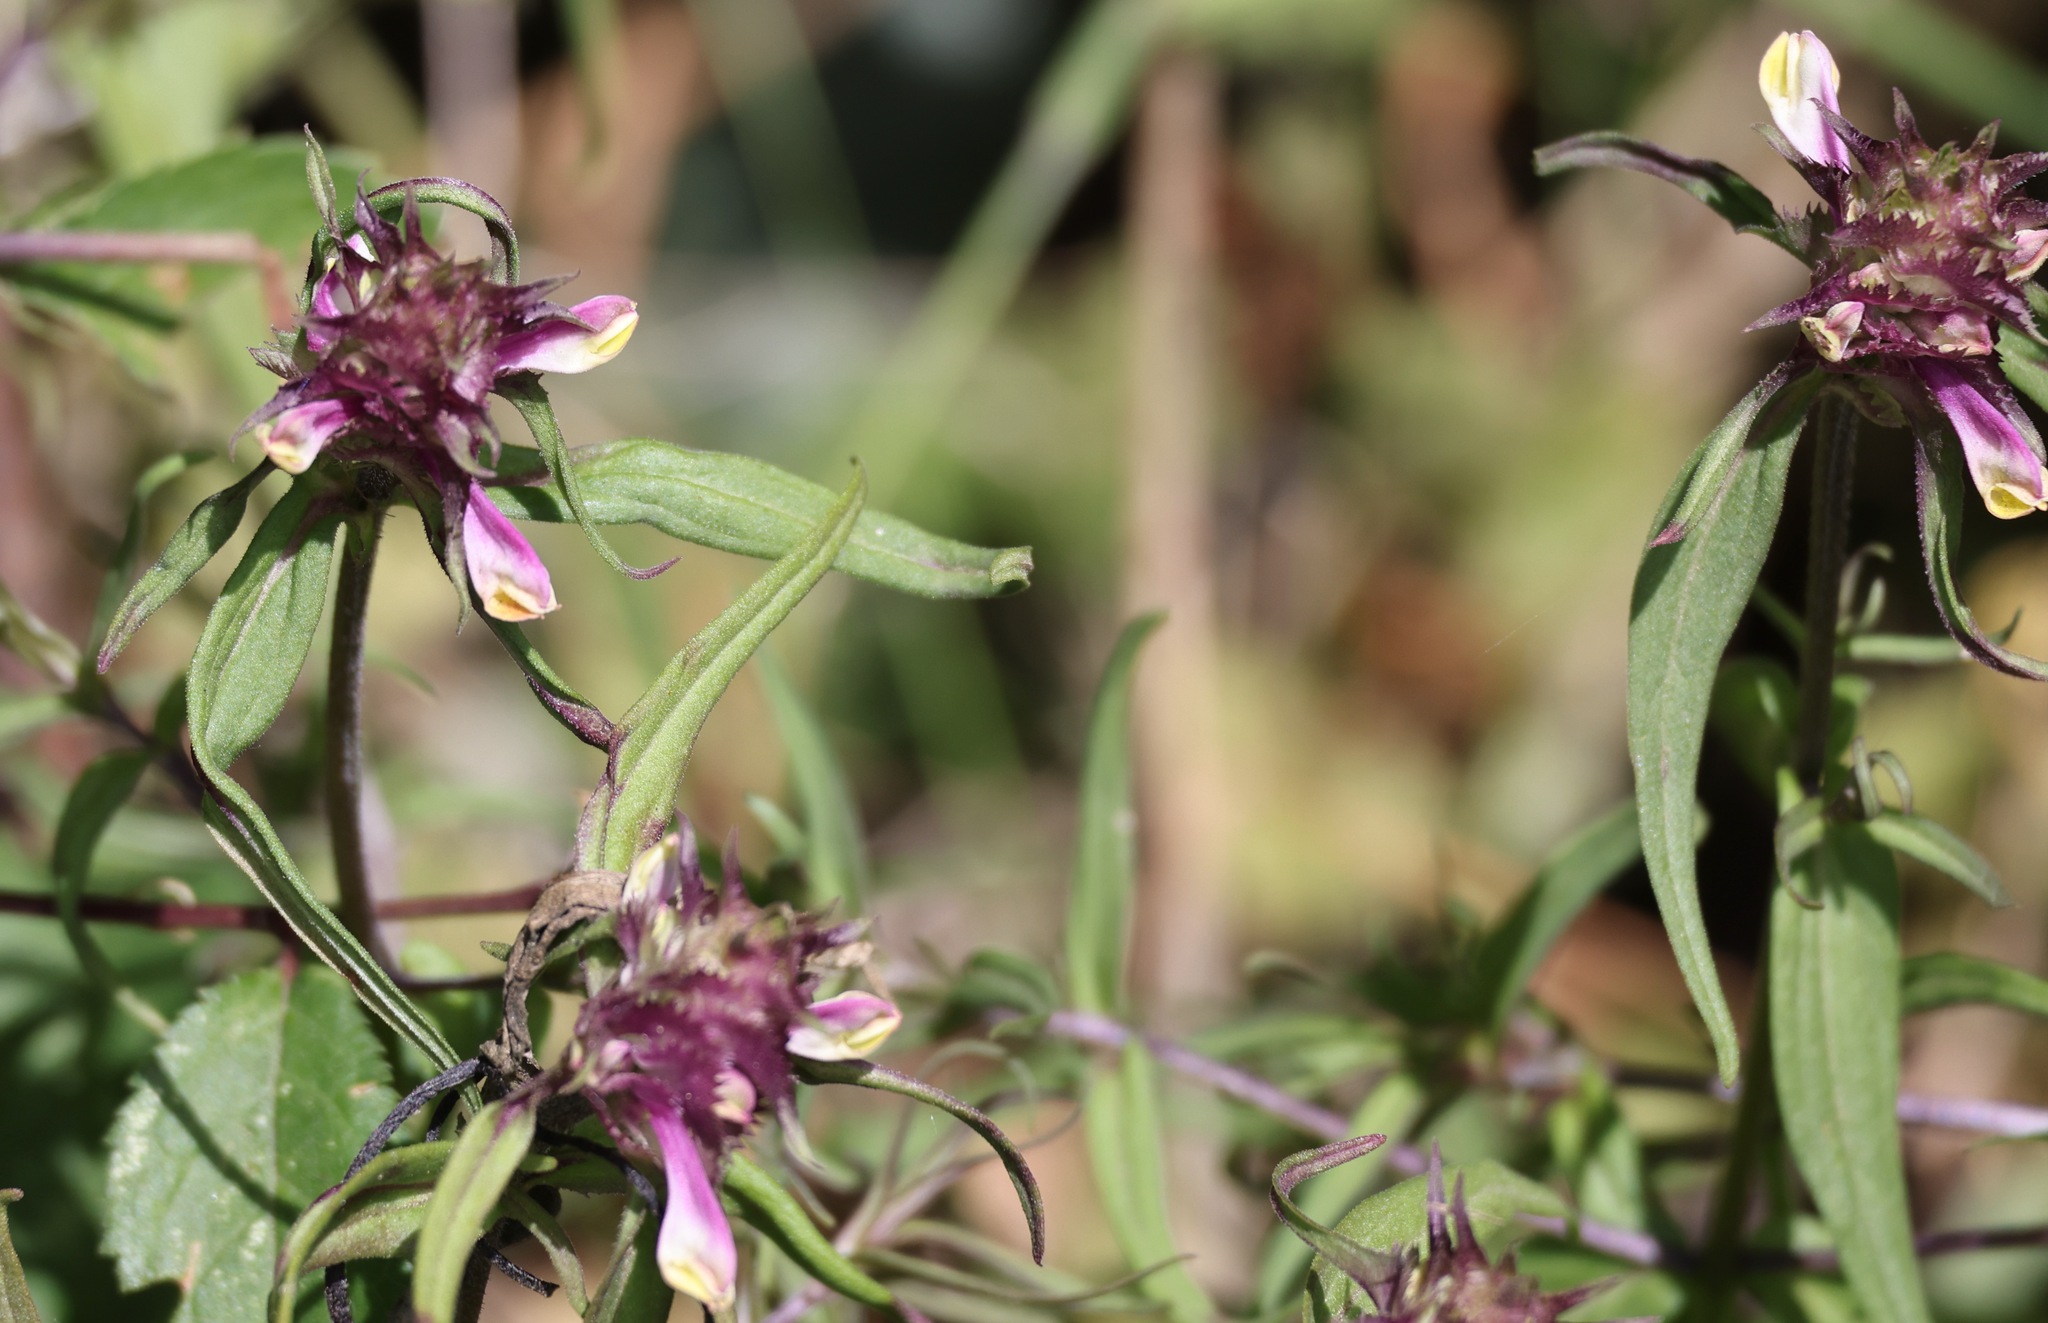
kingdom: Plantae
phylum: Tracheophyta
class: Magnoliopsida
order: Lamiales
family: Orobanchaceae
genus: Melampyrum
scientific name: Melampyrum cristatum
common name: Crested cow-wheat
